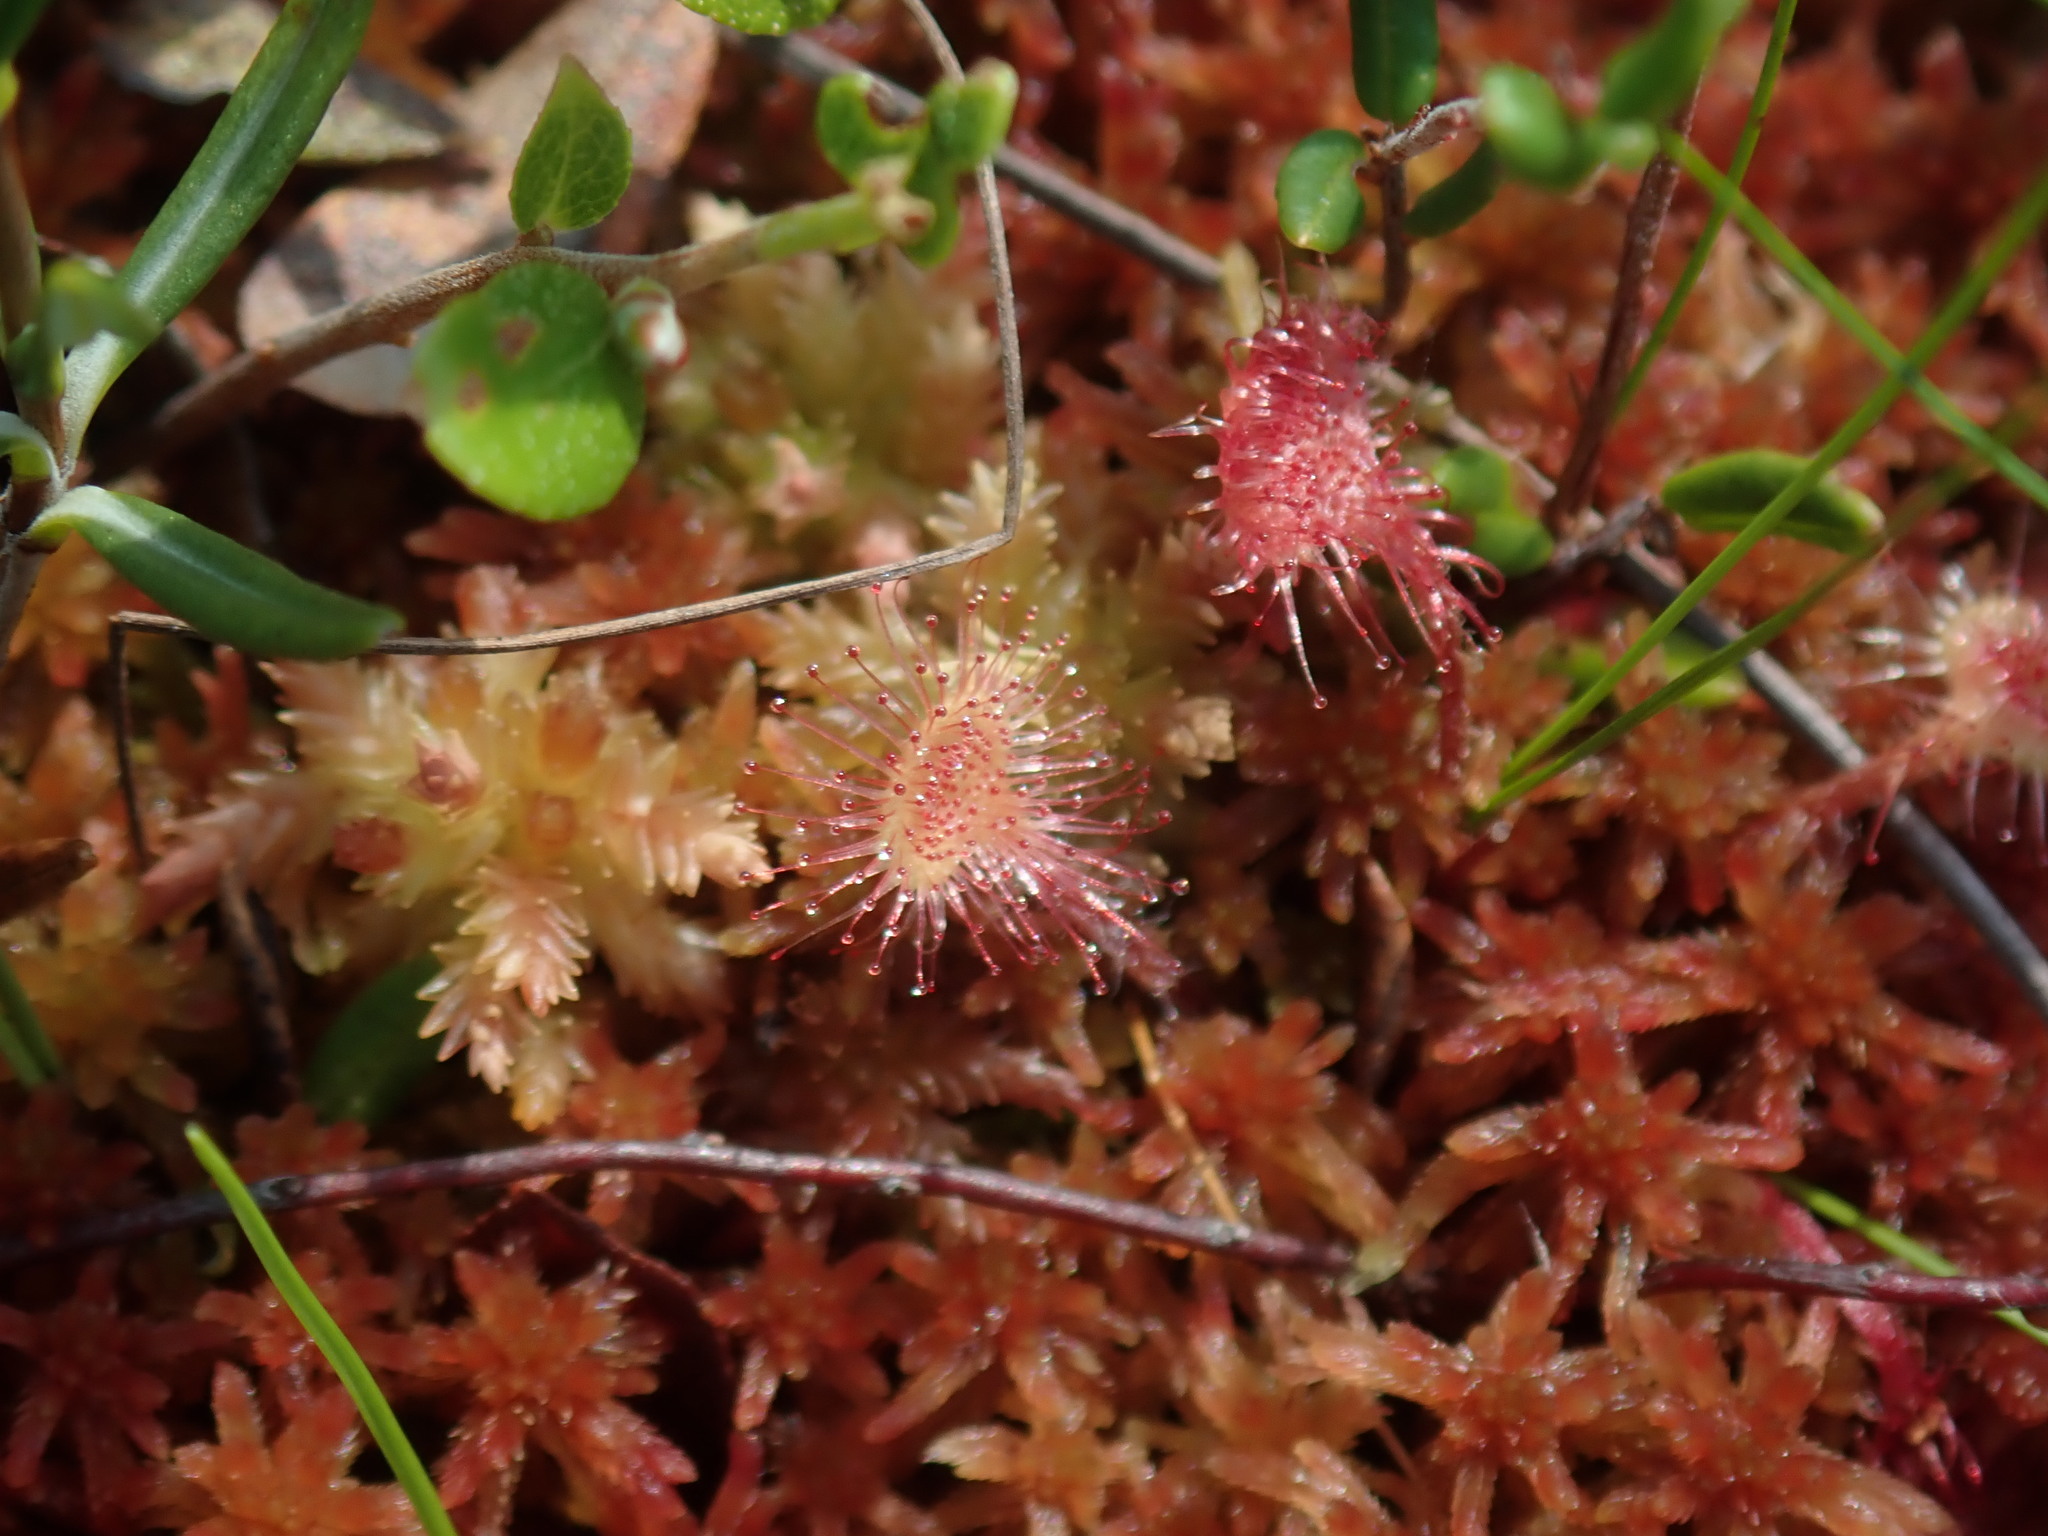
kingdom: Plantae
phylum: Tracheophyta
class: Magnoliopsida
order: Caryophyllales
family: Droseraceae
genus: Drosera
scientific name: Drosera rotundifolia
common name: Round-leaved sundew
